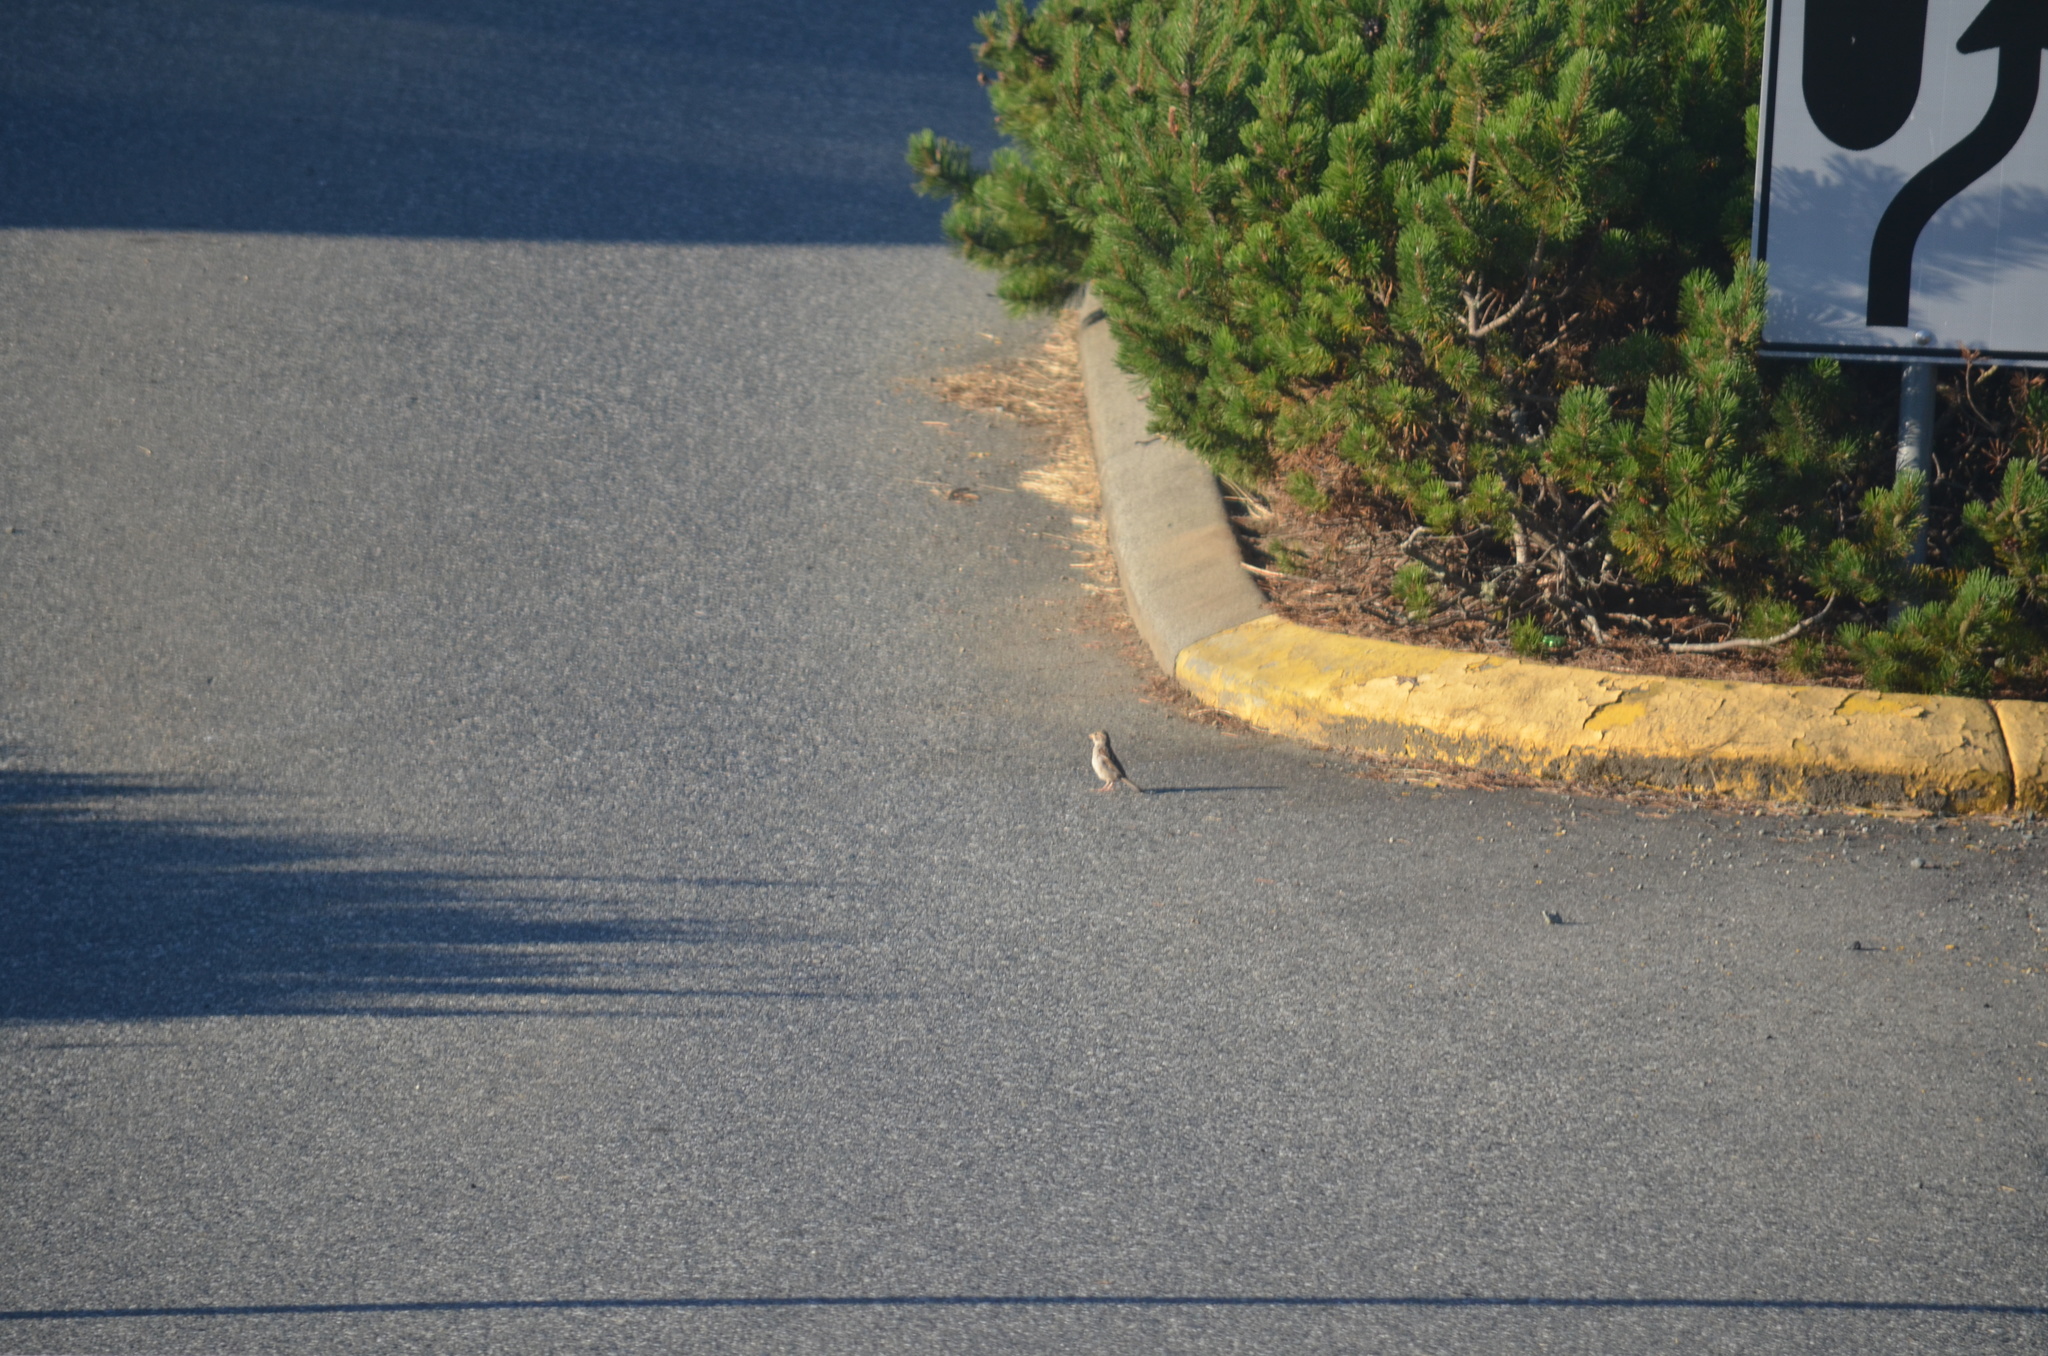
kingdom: Animalia
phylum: Chordata
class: Aves
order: Passeriformes
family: Passeridae
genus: Passer
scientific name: Passer domesticus
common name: House sparrow
